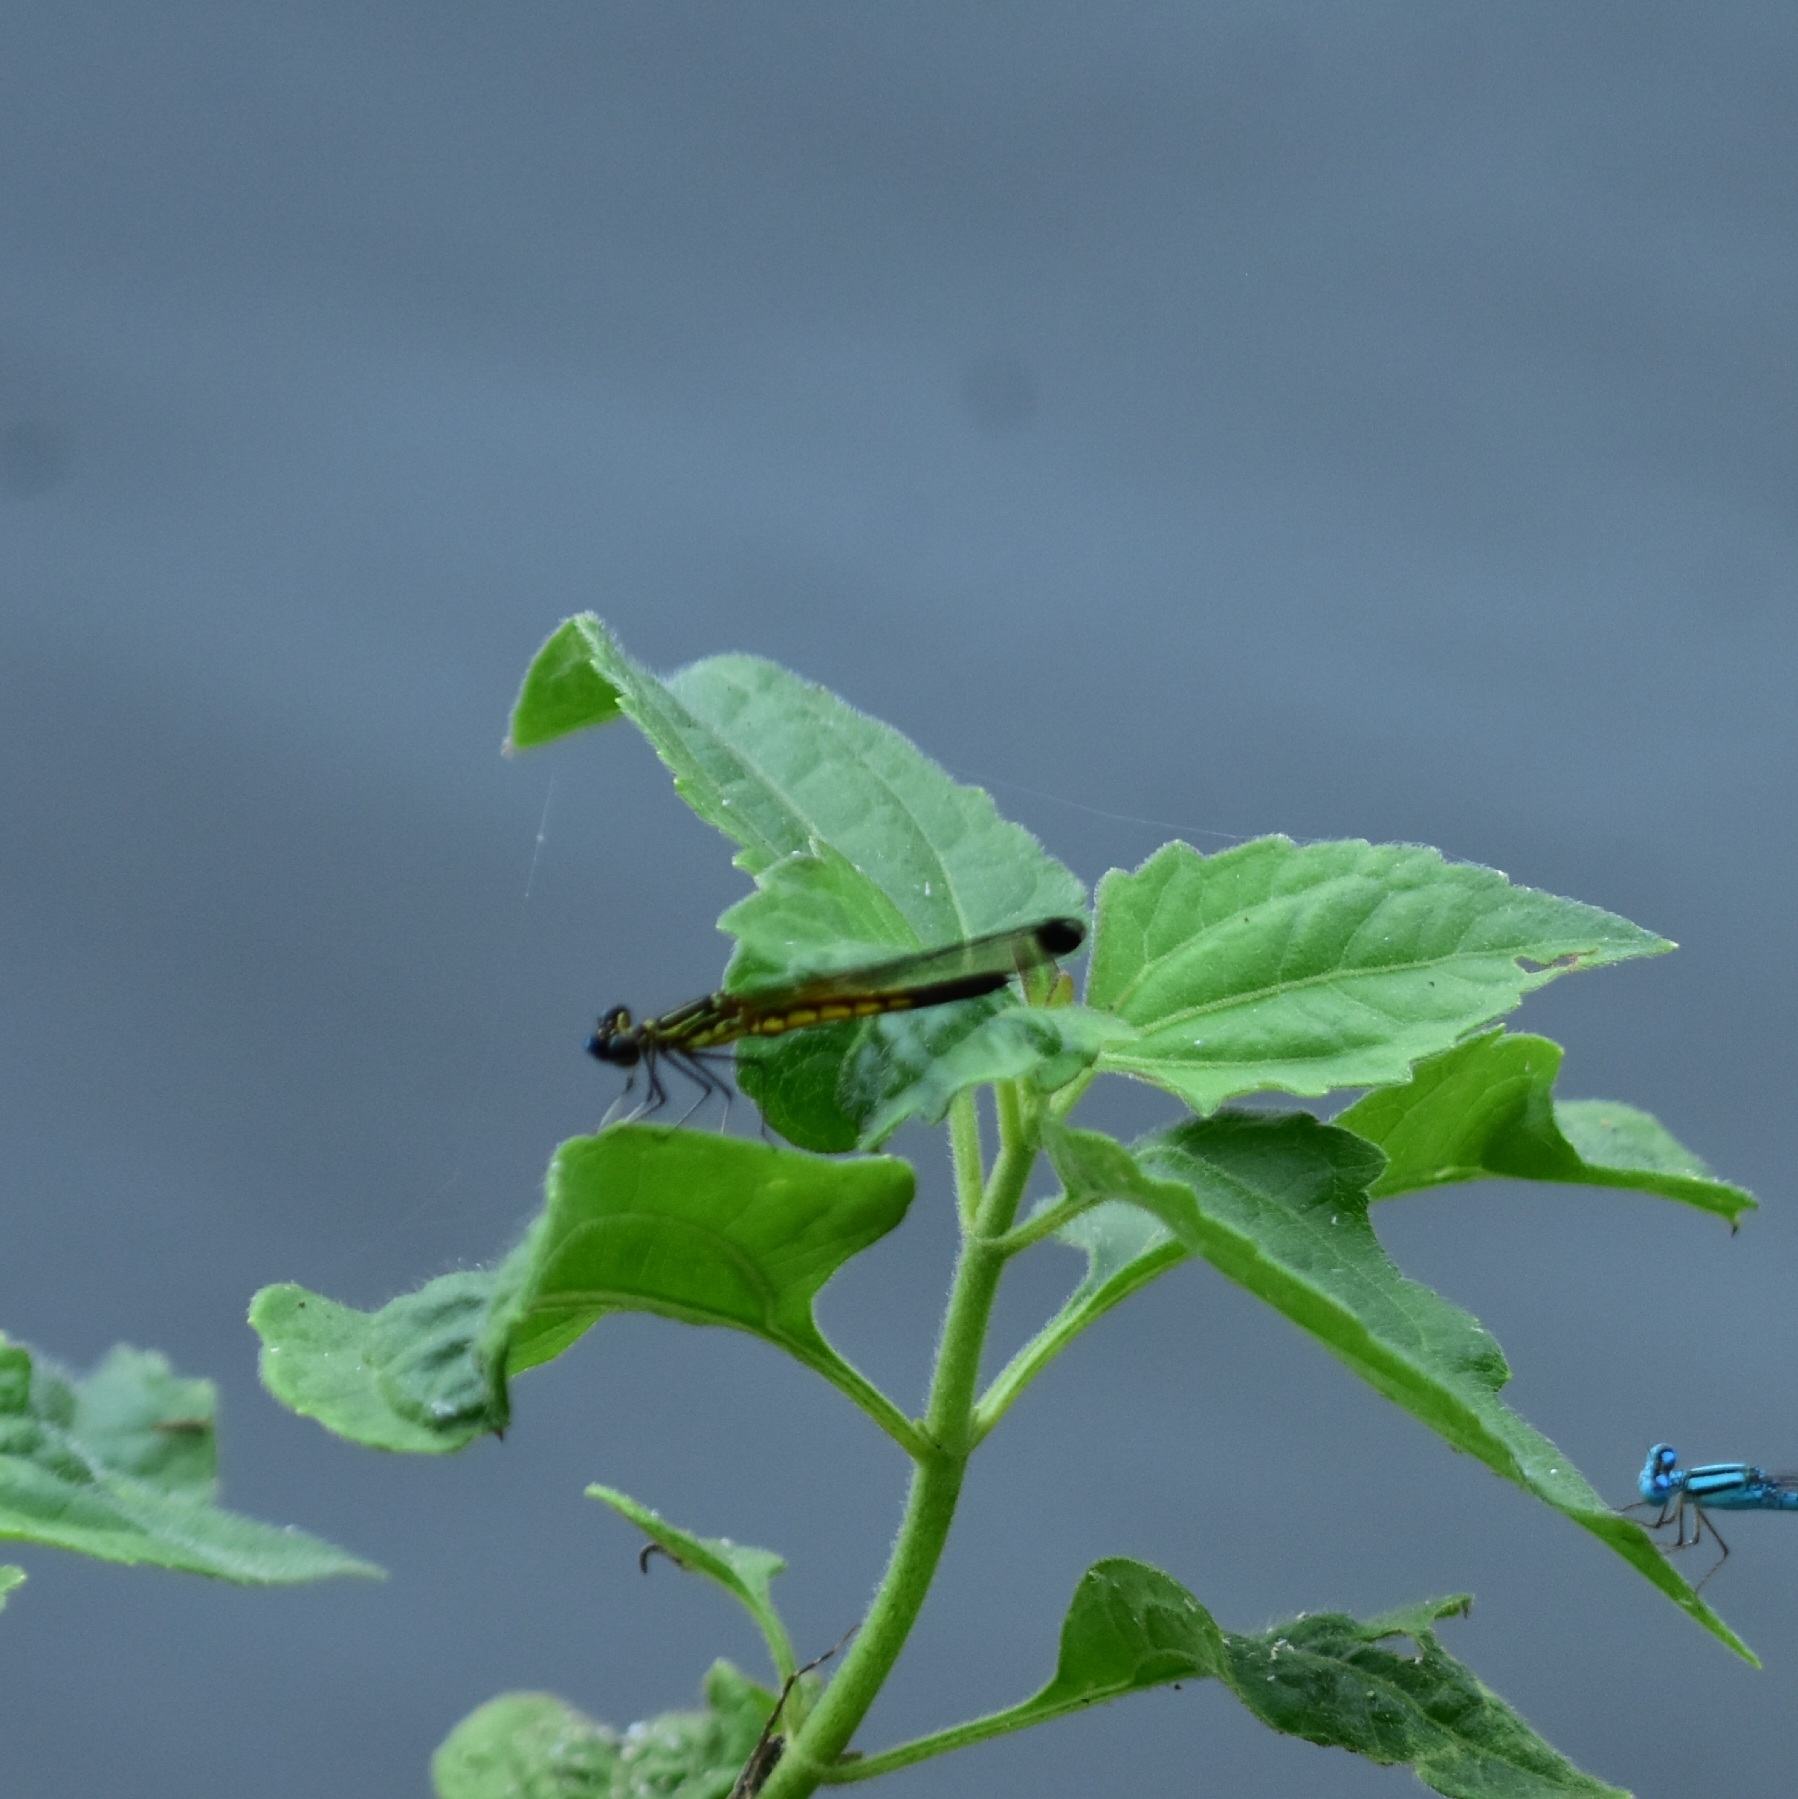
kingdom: Animalia
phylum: Arthropoda
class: Insecta
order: Odonata
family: Chlorocyphidae
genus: Libellago
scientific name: Libellago indica
